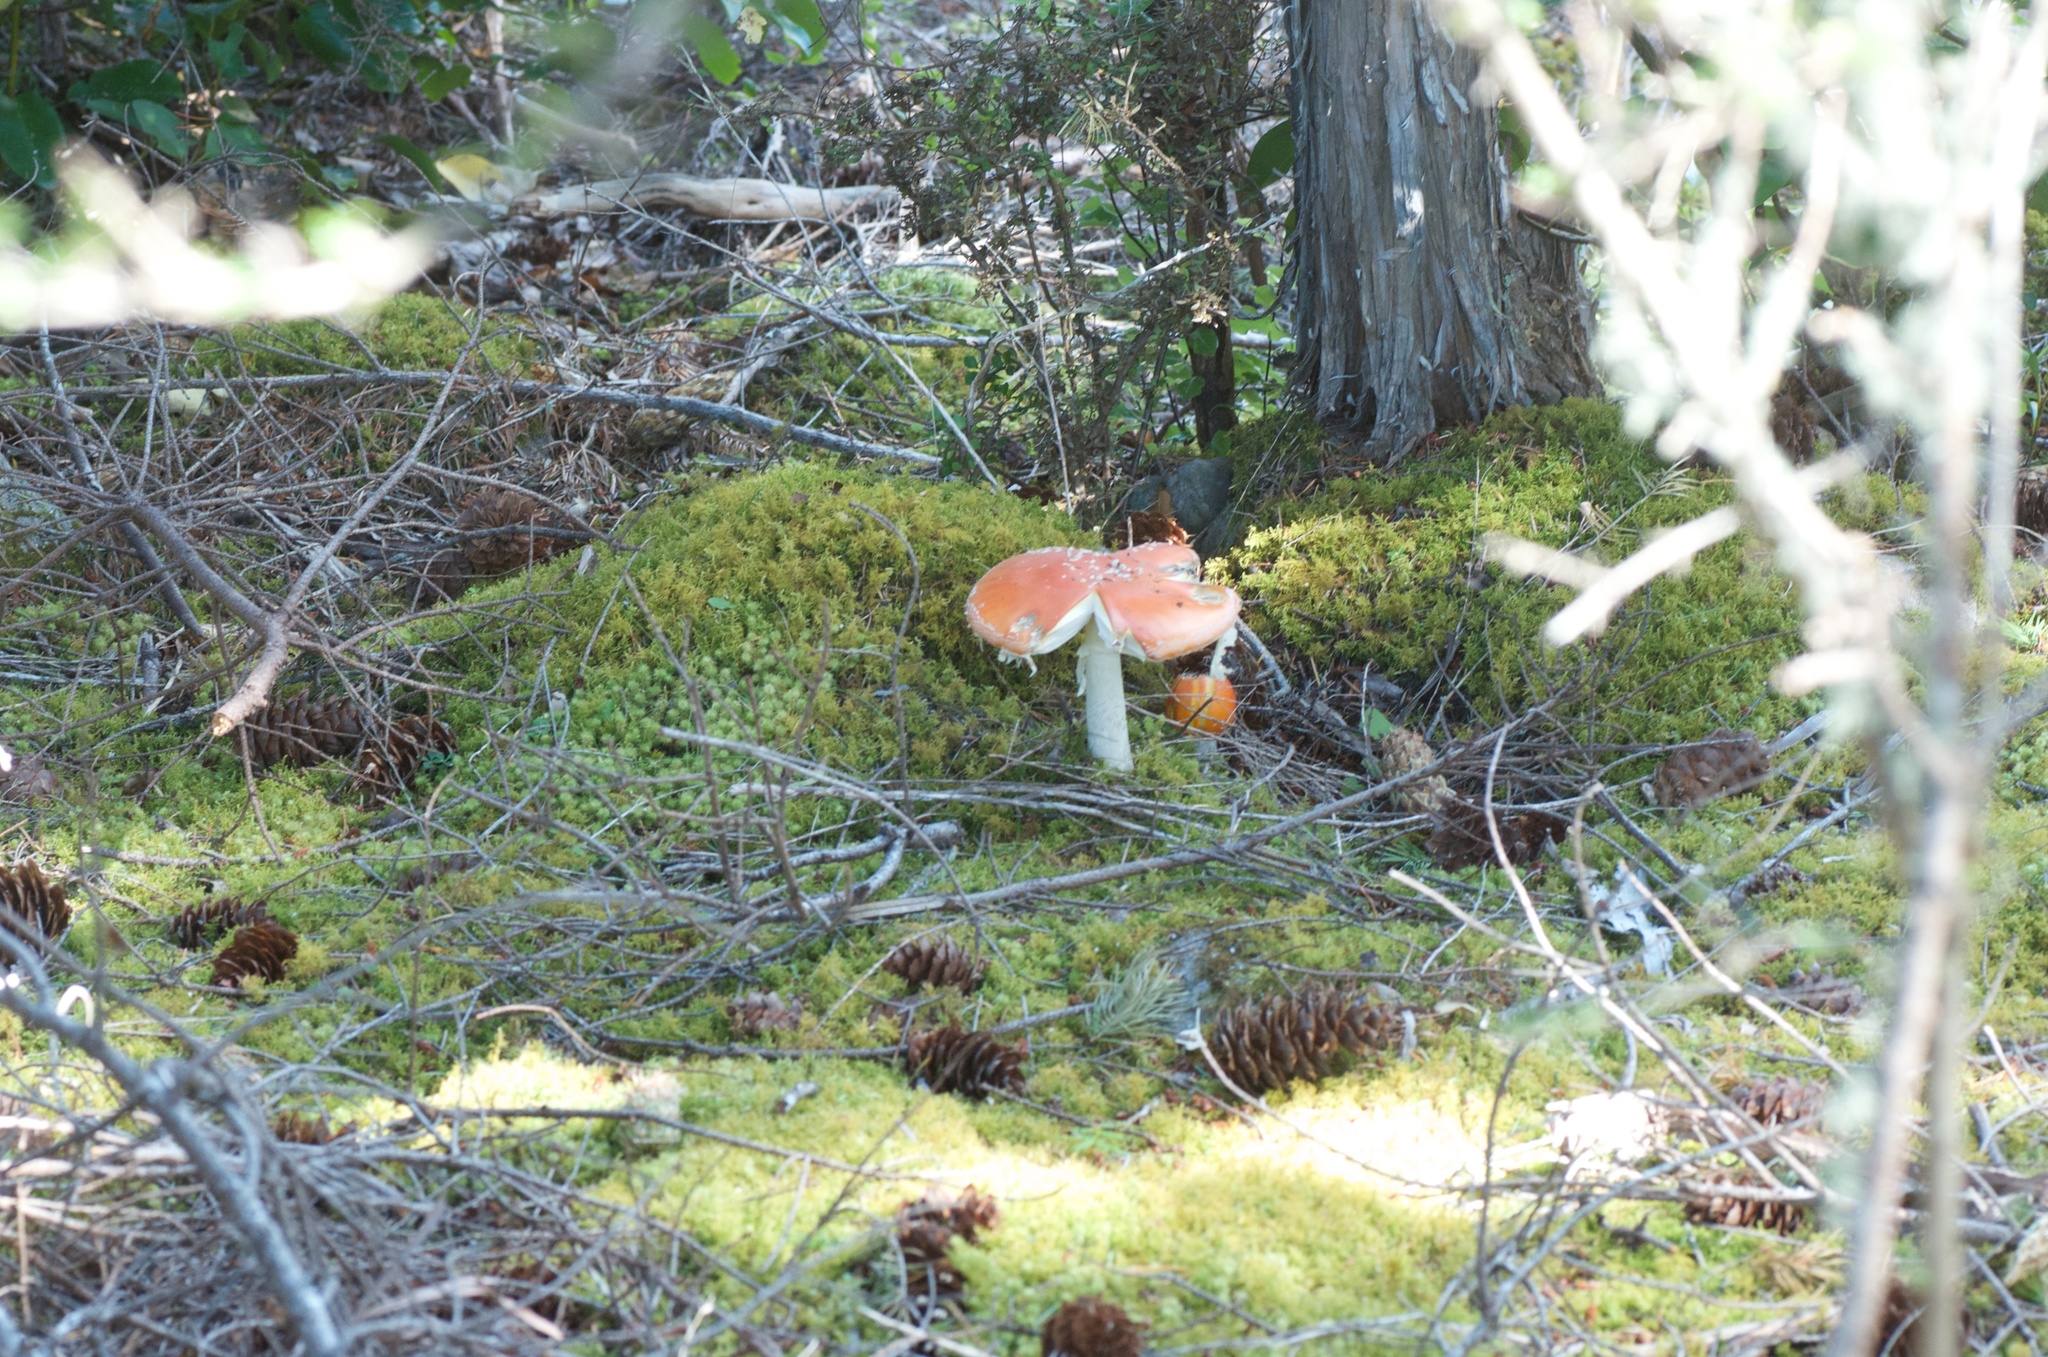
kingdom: Fungi
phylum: Basidiomycota
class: Agaricomycetes
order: Agaricales
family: Amanitaceae
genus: Amanita
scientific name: Amanita muscaria
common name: Fly agaric
